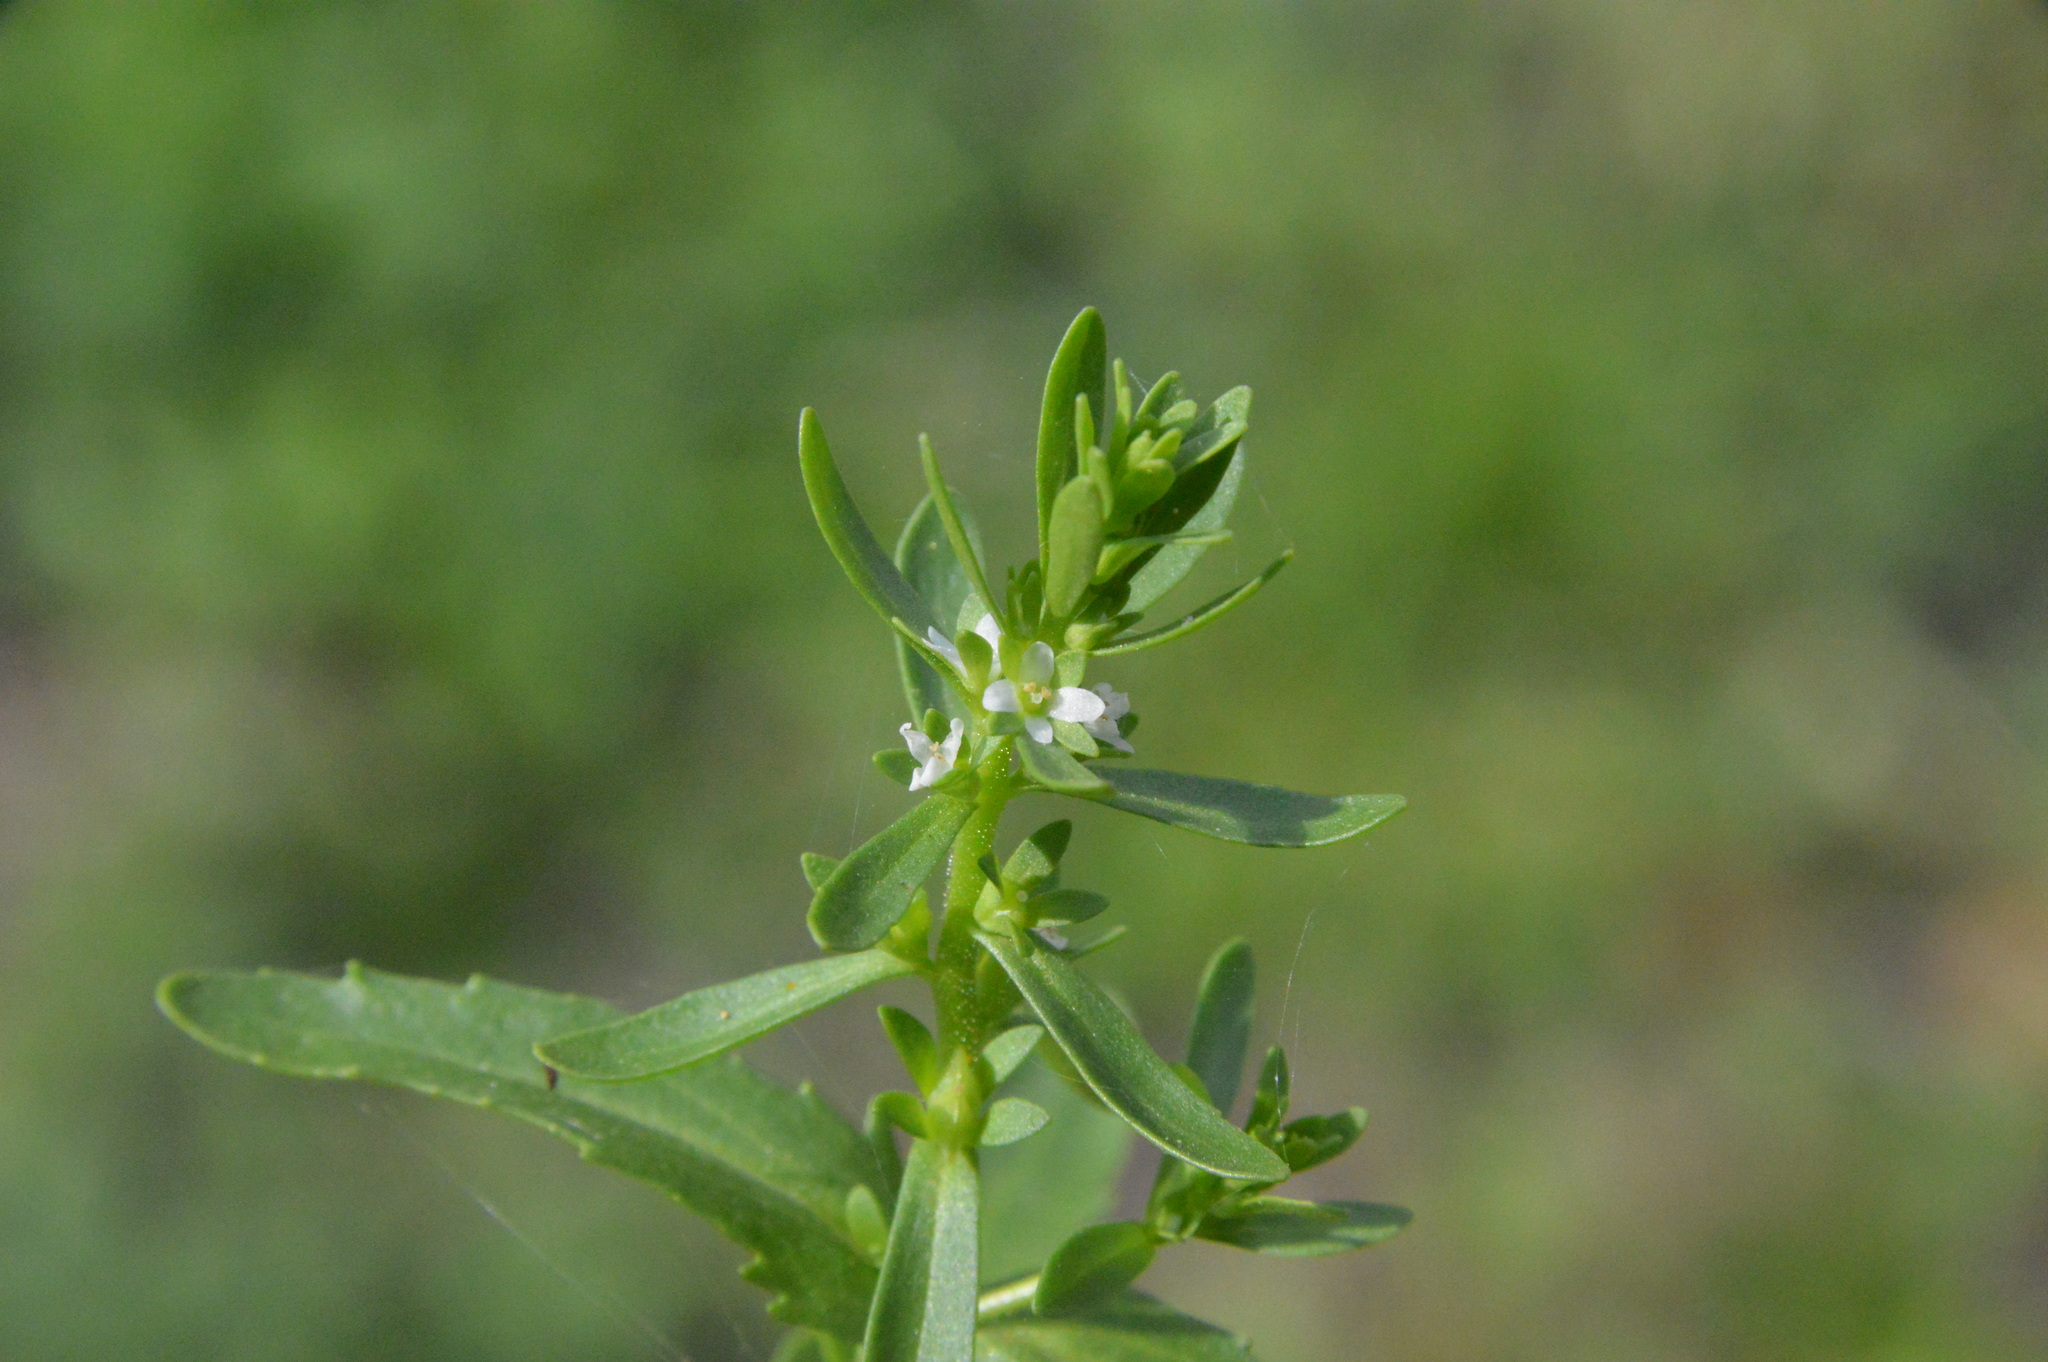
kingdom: Plantae
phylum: Tracheophyta
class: Magnoliopsida
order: Lamiales
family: Plantaginaceae
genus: Veronica
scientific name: Veronica peregrina
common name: Neckweed
